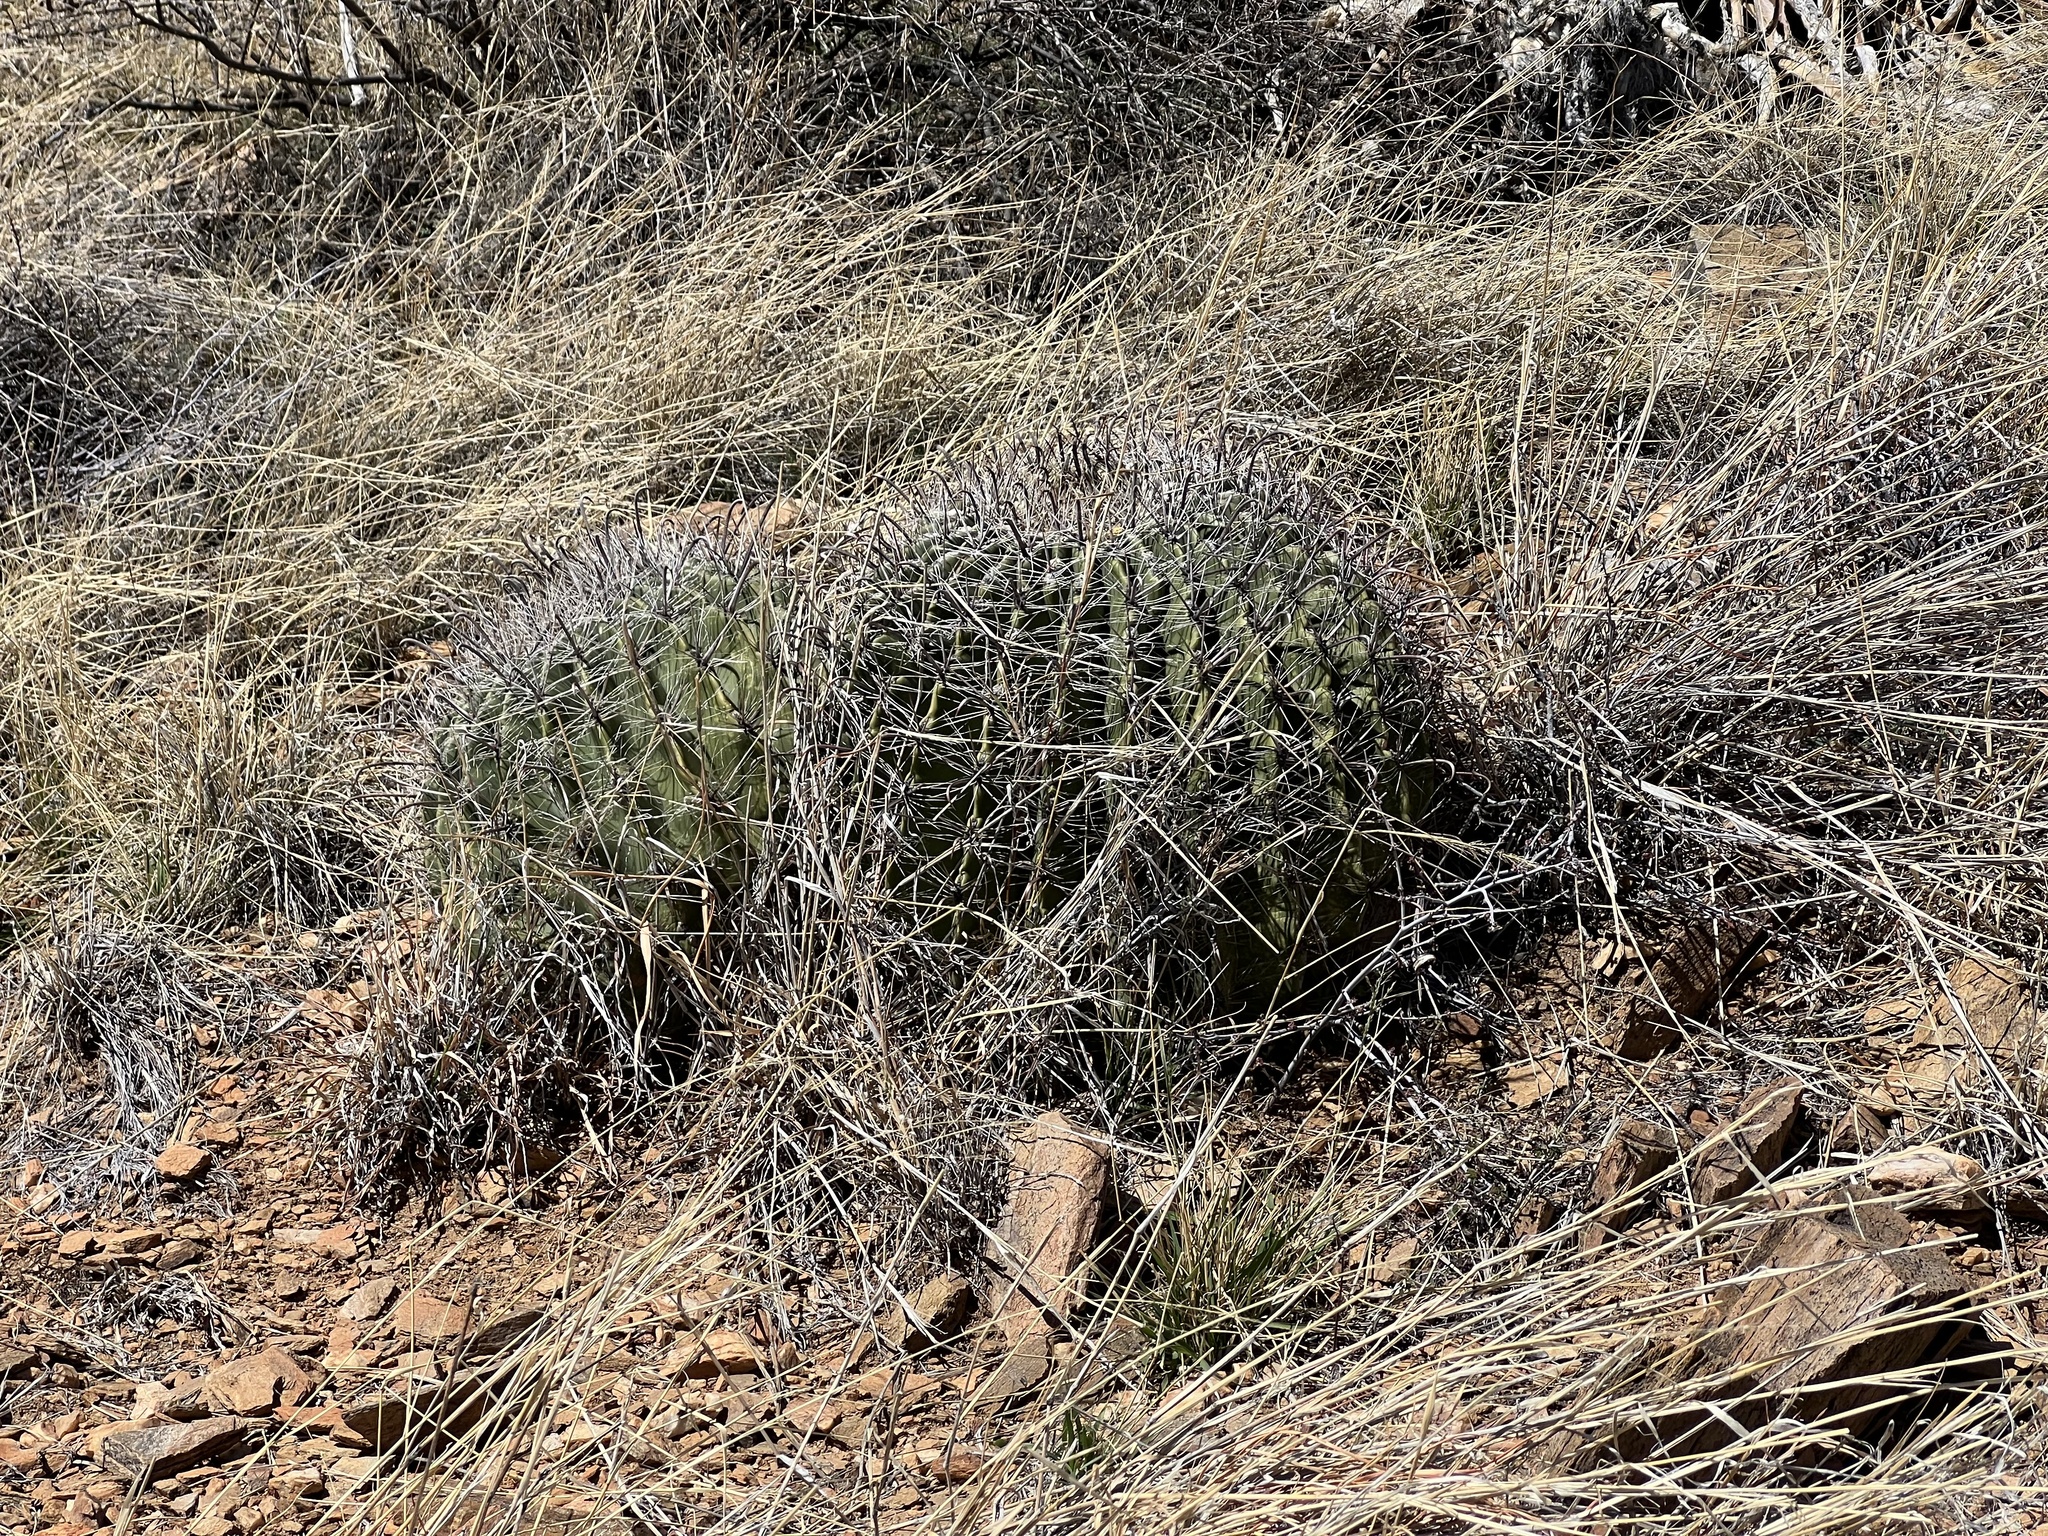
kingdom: Plantae
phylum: Tracheophyta
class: Magnoliopsida
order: Caryophyllales
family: Cactaceae
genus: Ferocactus
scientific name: Ferocactus wislizeni
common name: Candy barrel cactus
